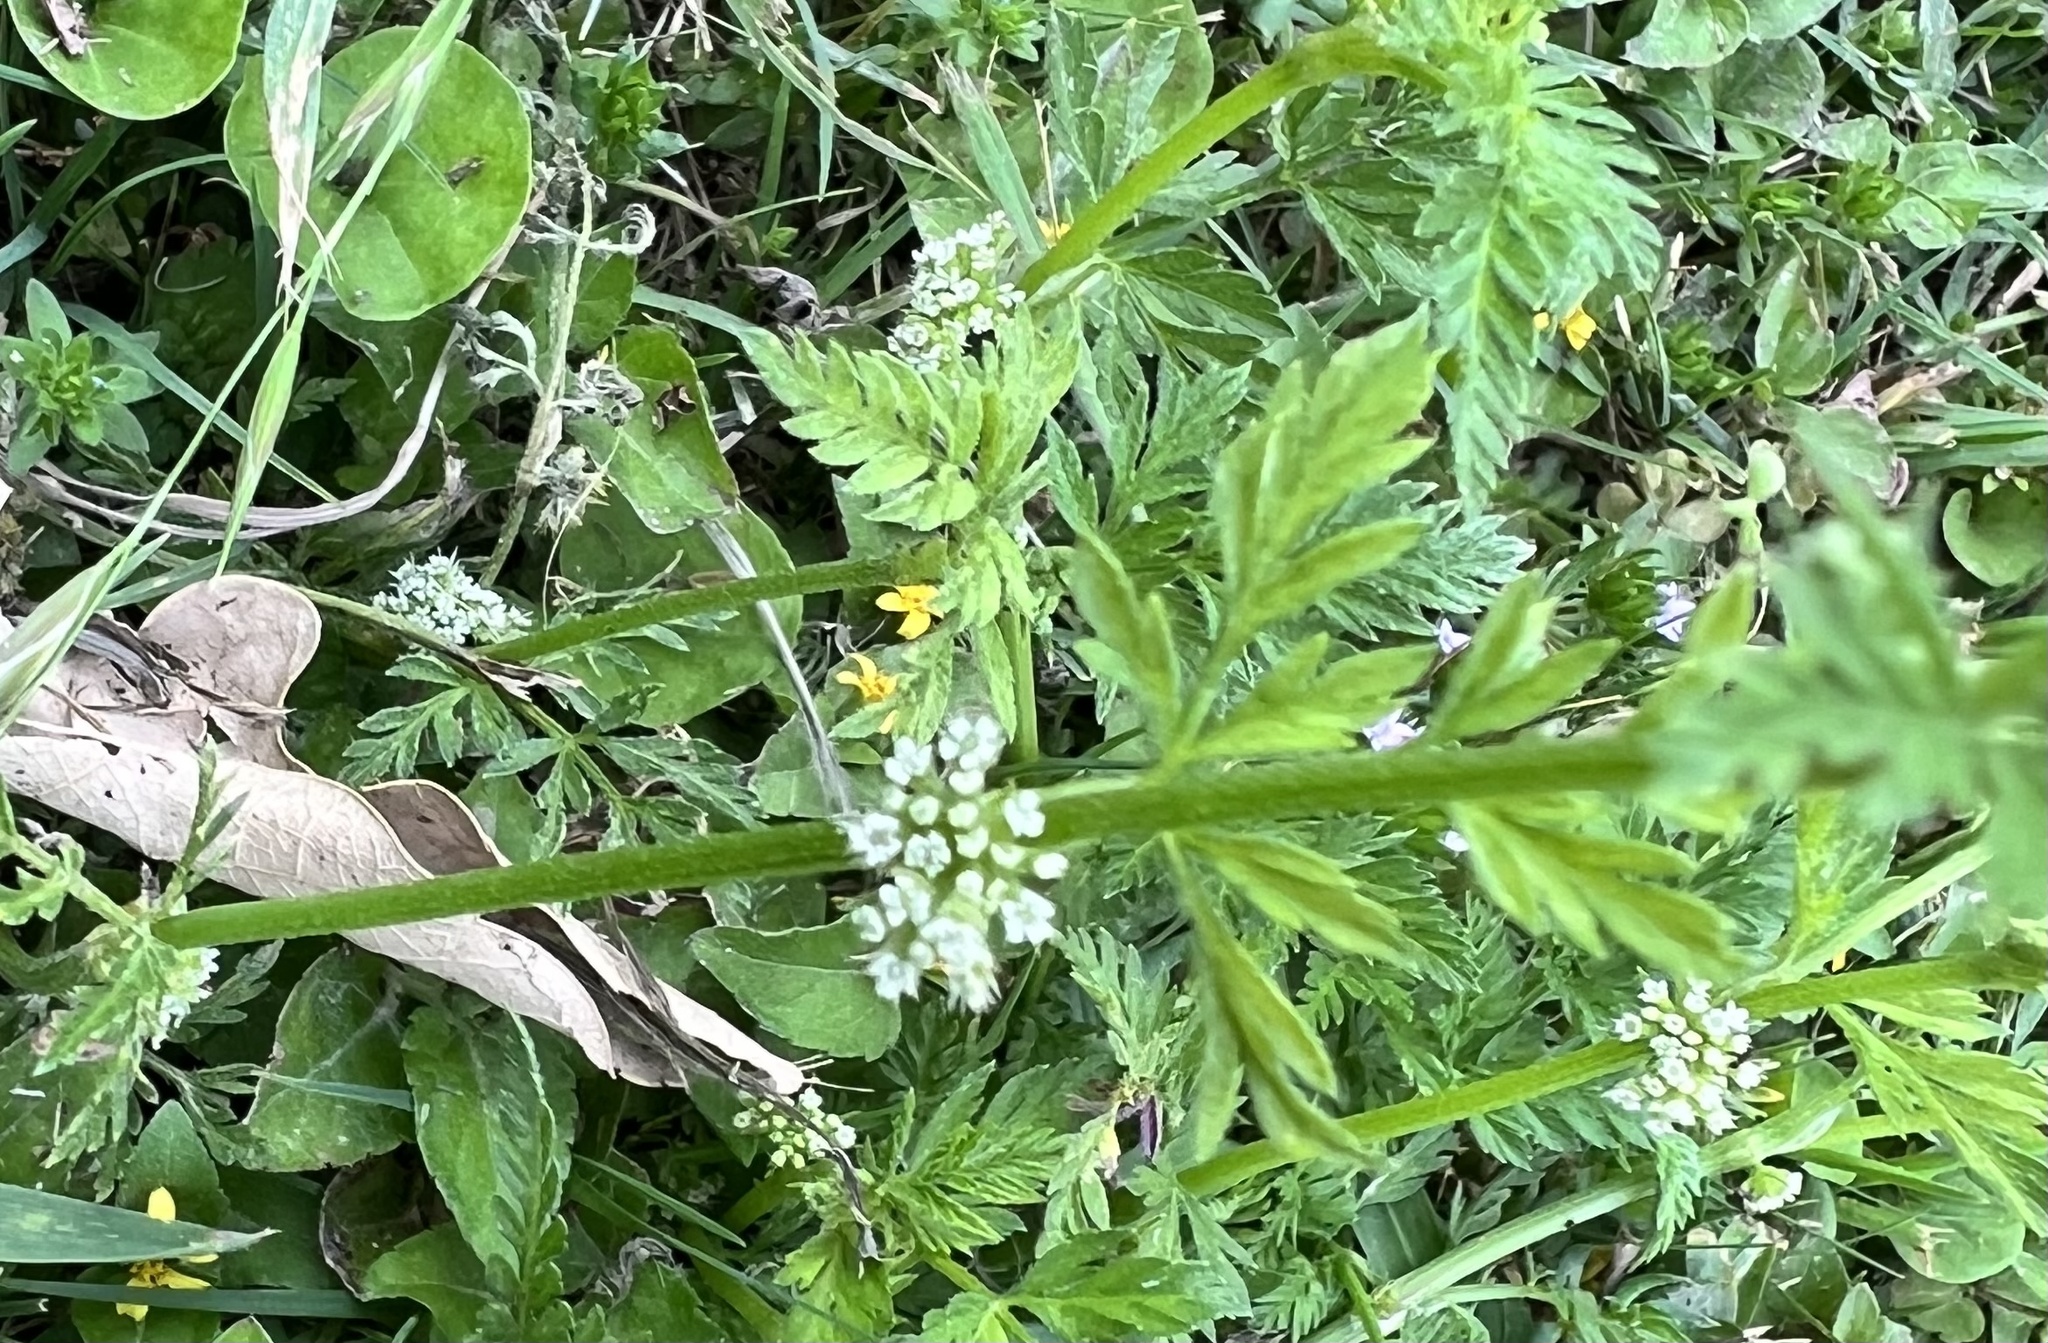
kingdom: Plantae
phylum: Tracheophyta
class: Magnoliopsida
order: Apiales
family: Apiaceae
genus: Torilis
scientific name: Torilis nodosa
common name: Knotted hedge-parsley
